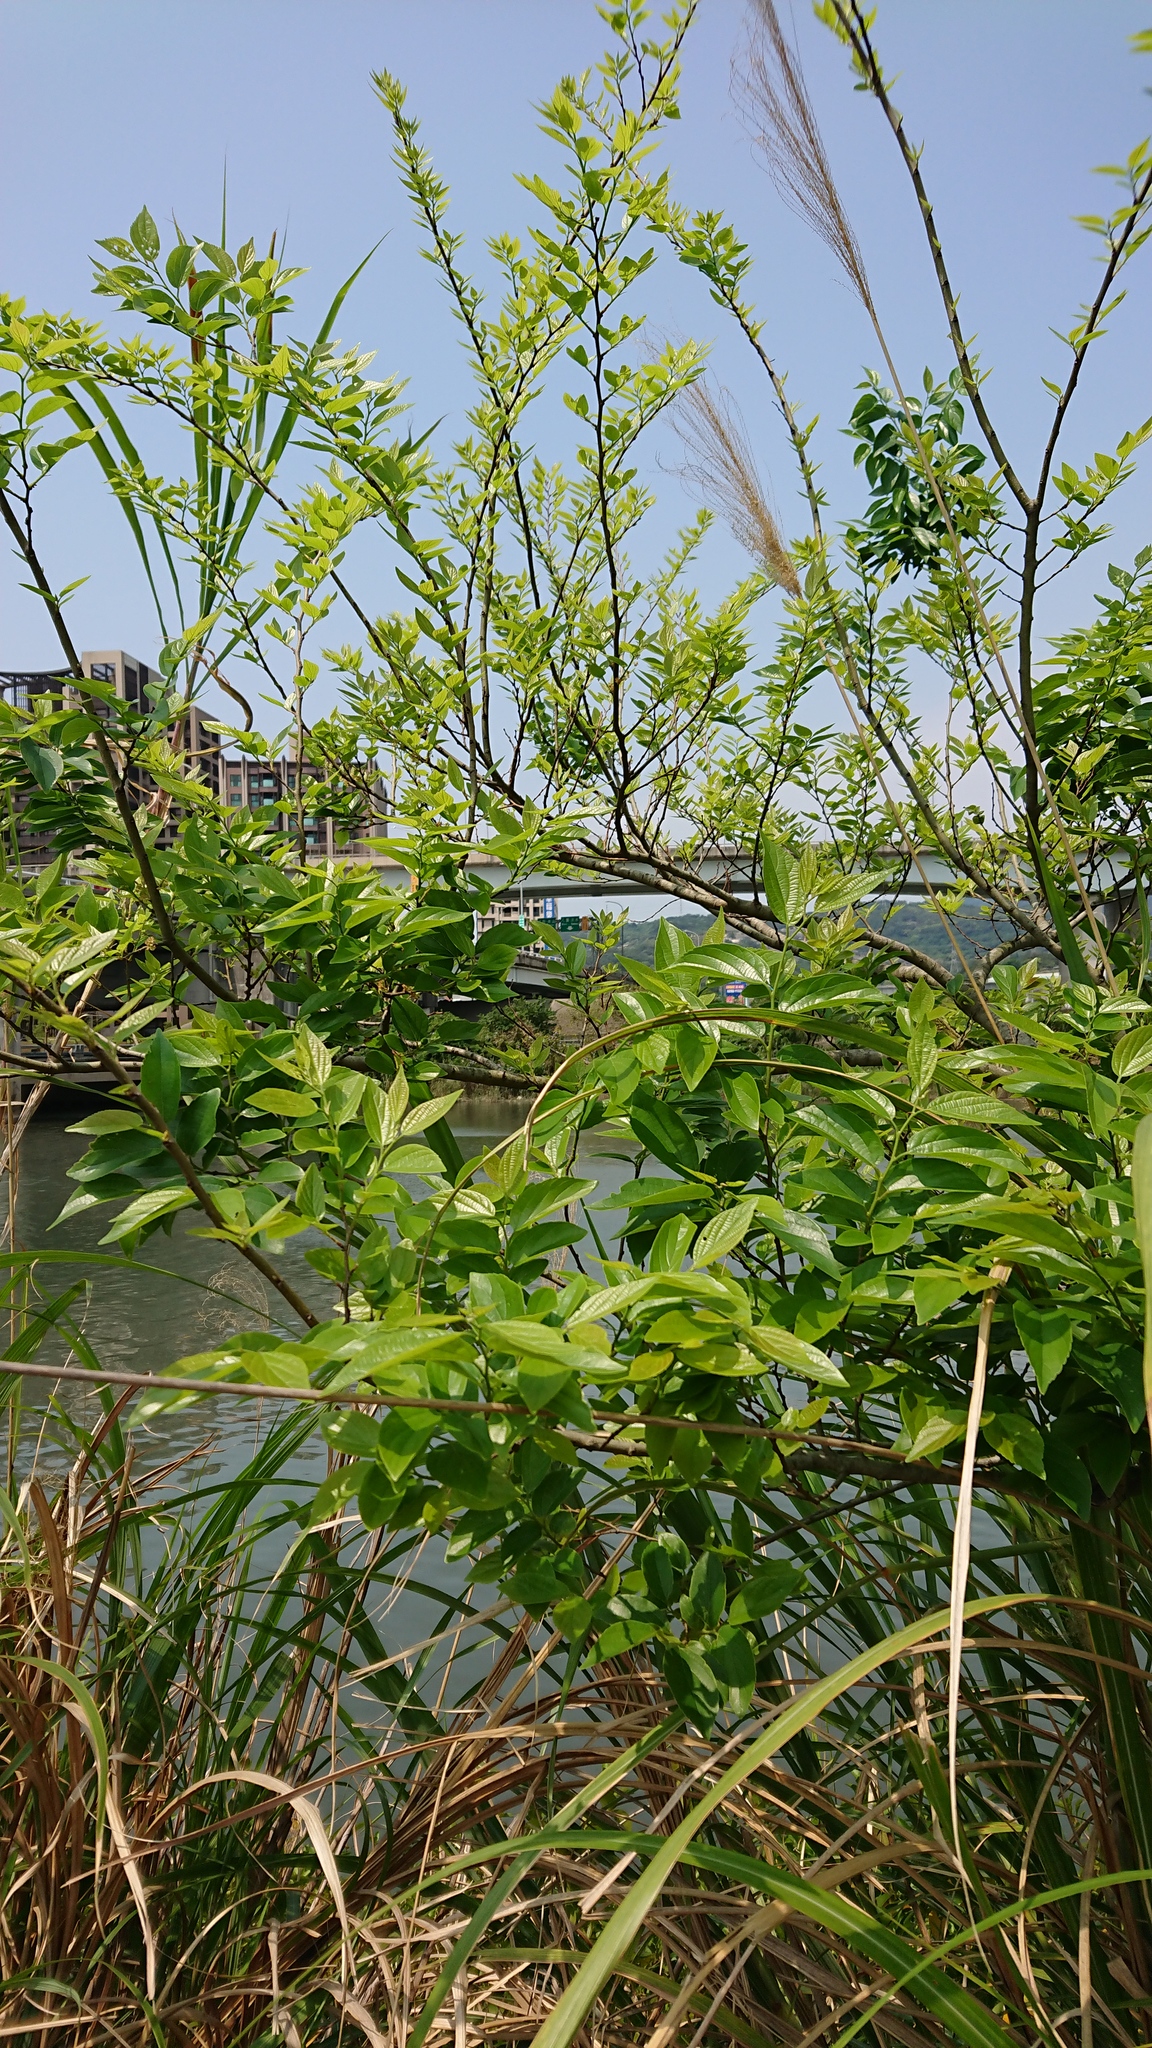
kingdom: Plantae
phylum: Tracheophyta
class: Magnoliopsida
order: Rosales
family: Cannabaceae
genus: Celtis
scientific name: Celtis sinensis
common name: Chinese hackberry
